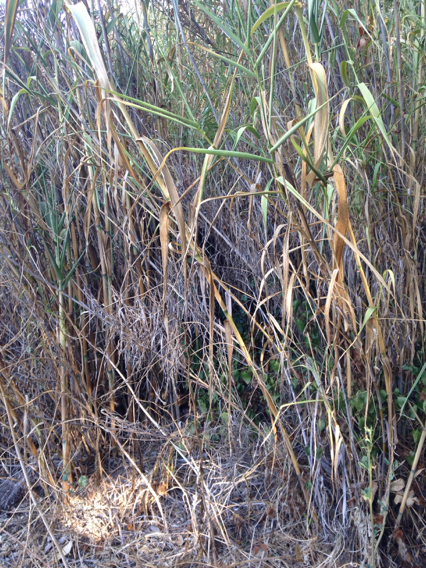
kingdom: Plantae
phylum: Tracheophyta
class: Liliopsida
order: Poales
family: Poaceae
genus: Arundo
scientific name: Arundo donax
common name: Giant reed
